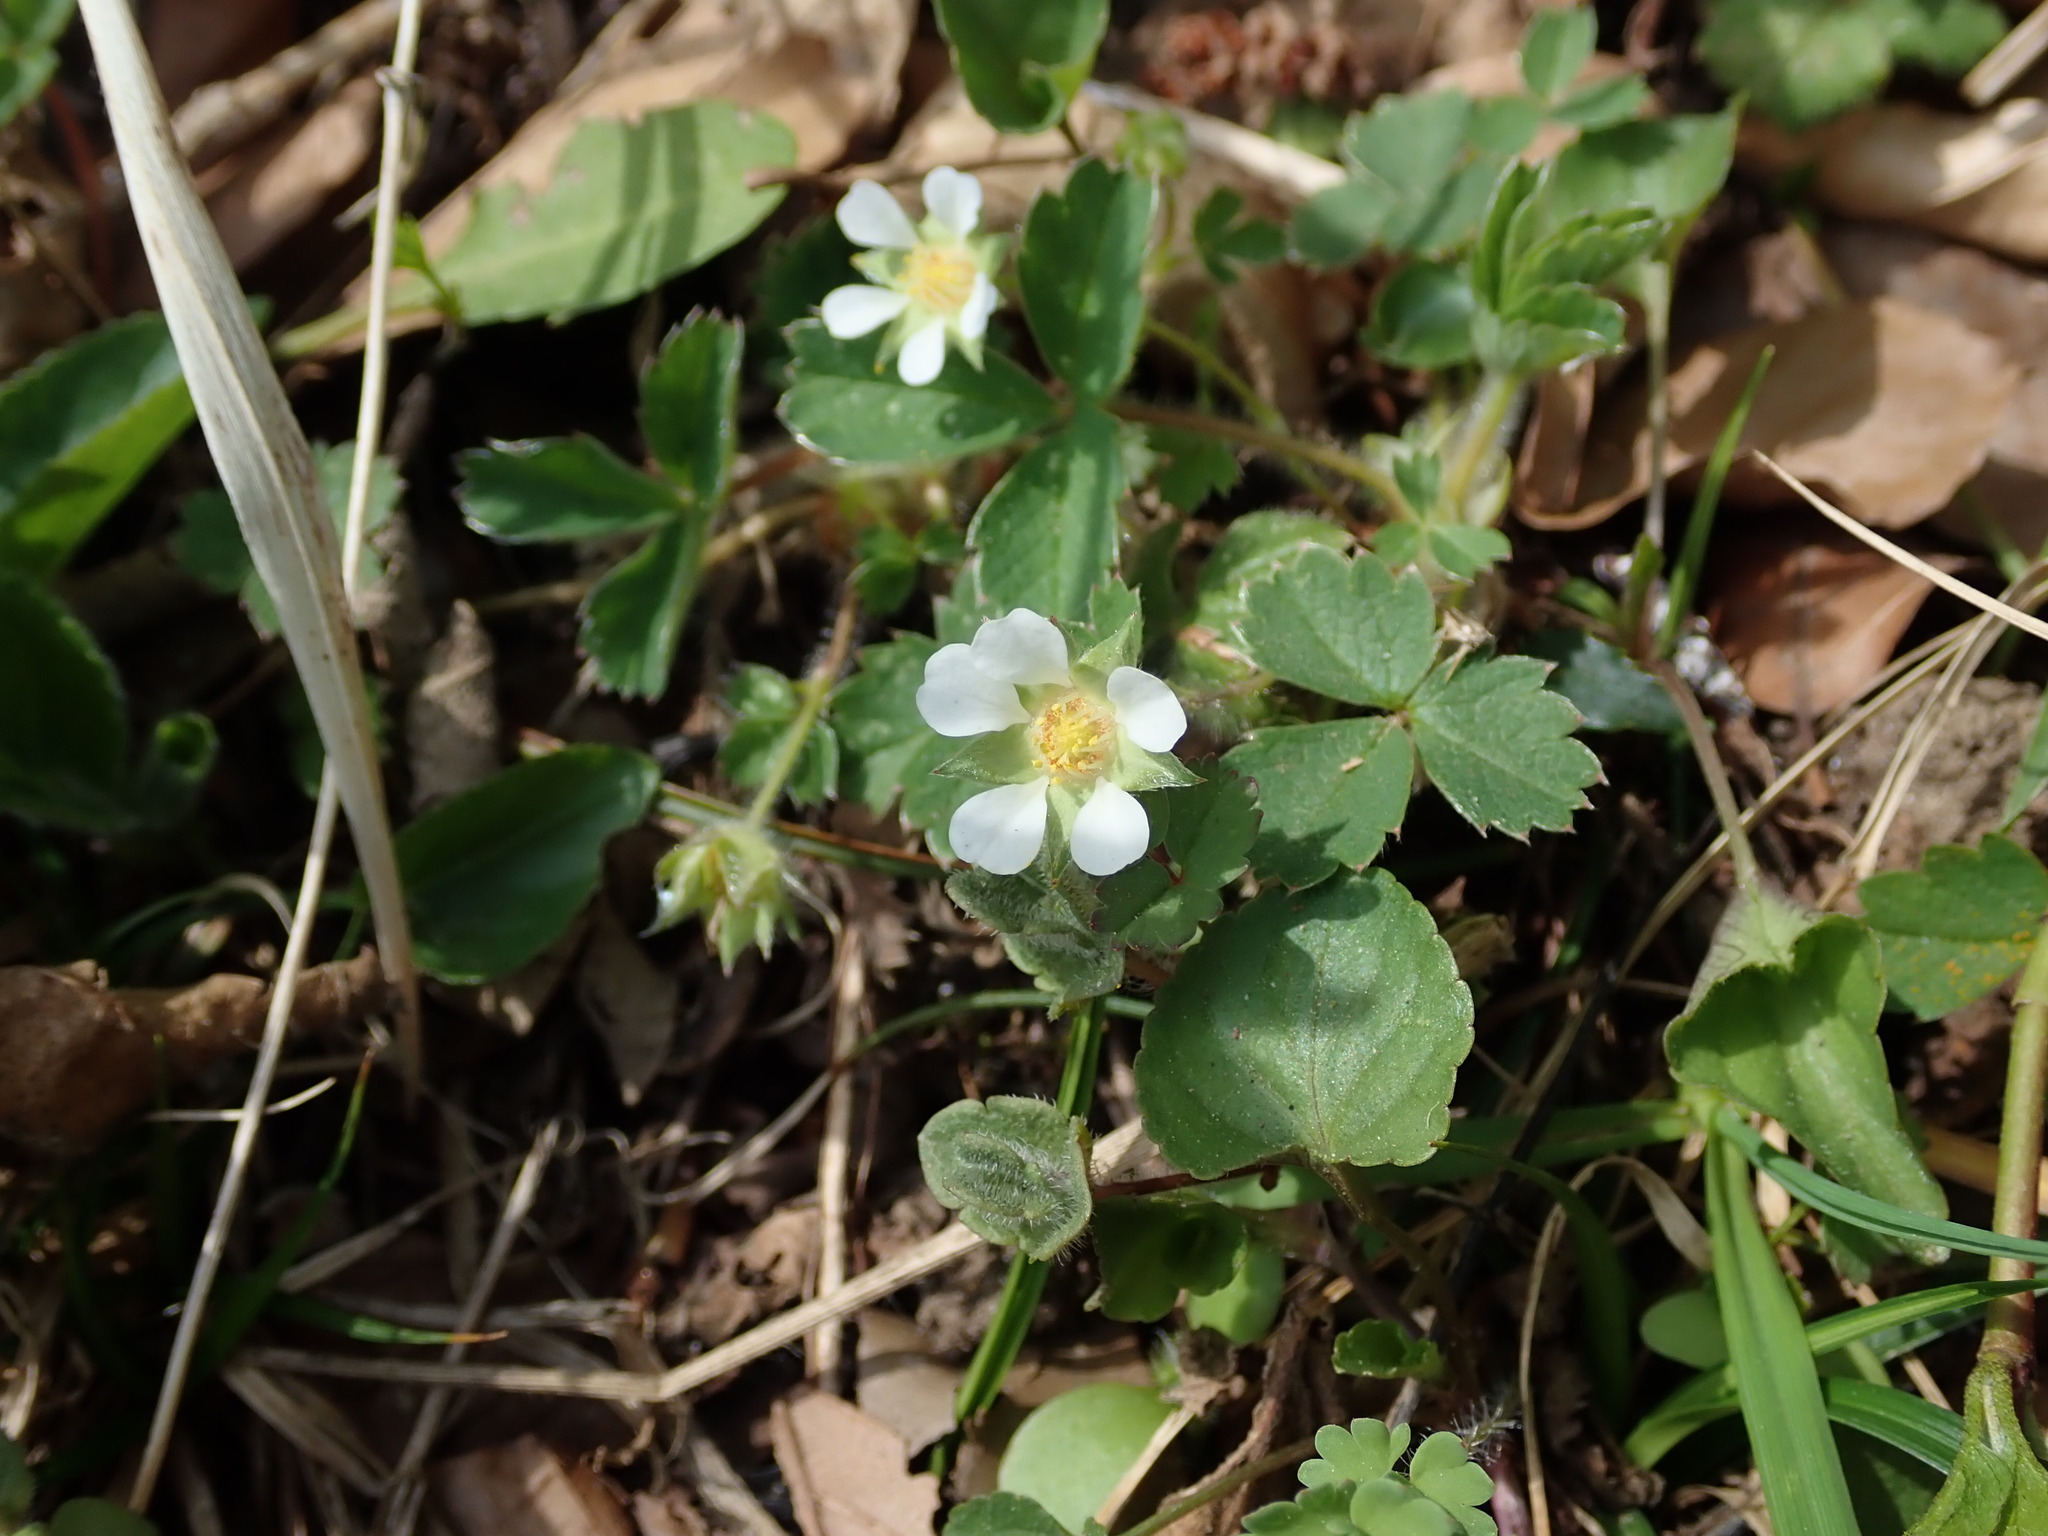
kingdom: Plantae
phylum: Tracheophyta
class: Magnoliopsida
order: Rosales
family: Rosaceae
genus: Potentilla
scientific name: Potentilla sterilis
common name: Barren strawberry
